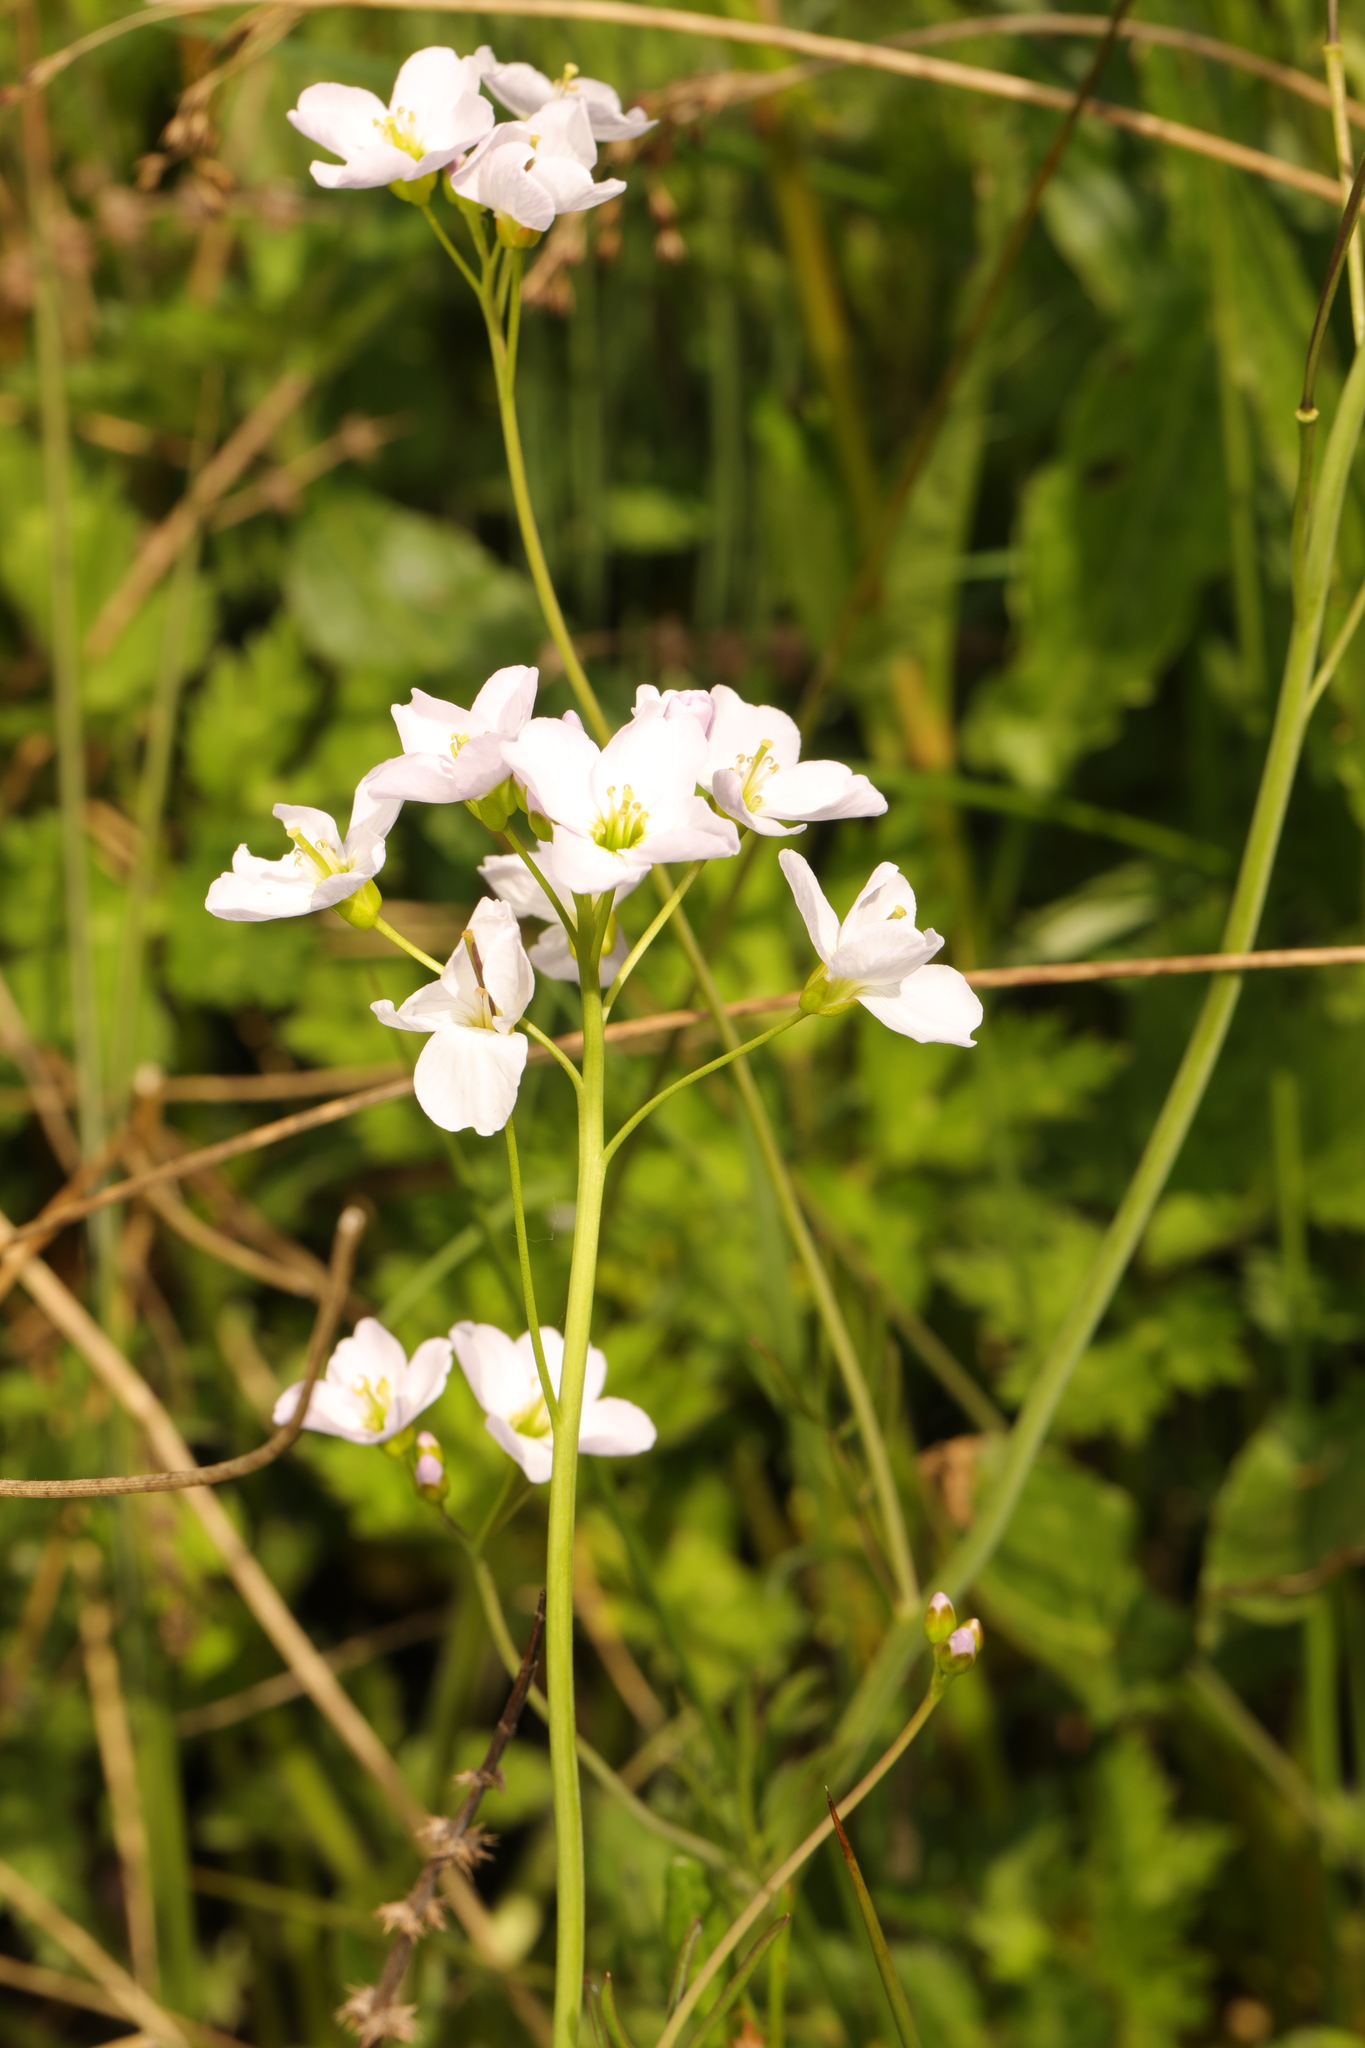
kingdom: Plantae
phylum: Tracheophyta
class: Magnoliopsida
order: Brassicales
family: Brassicaceae
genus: Cardamine
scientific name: Cardamine pratensis
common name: Cuckoo flower
